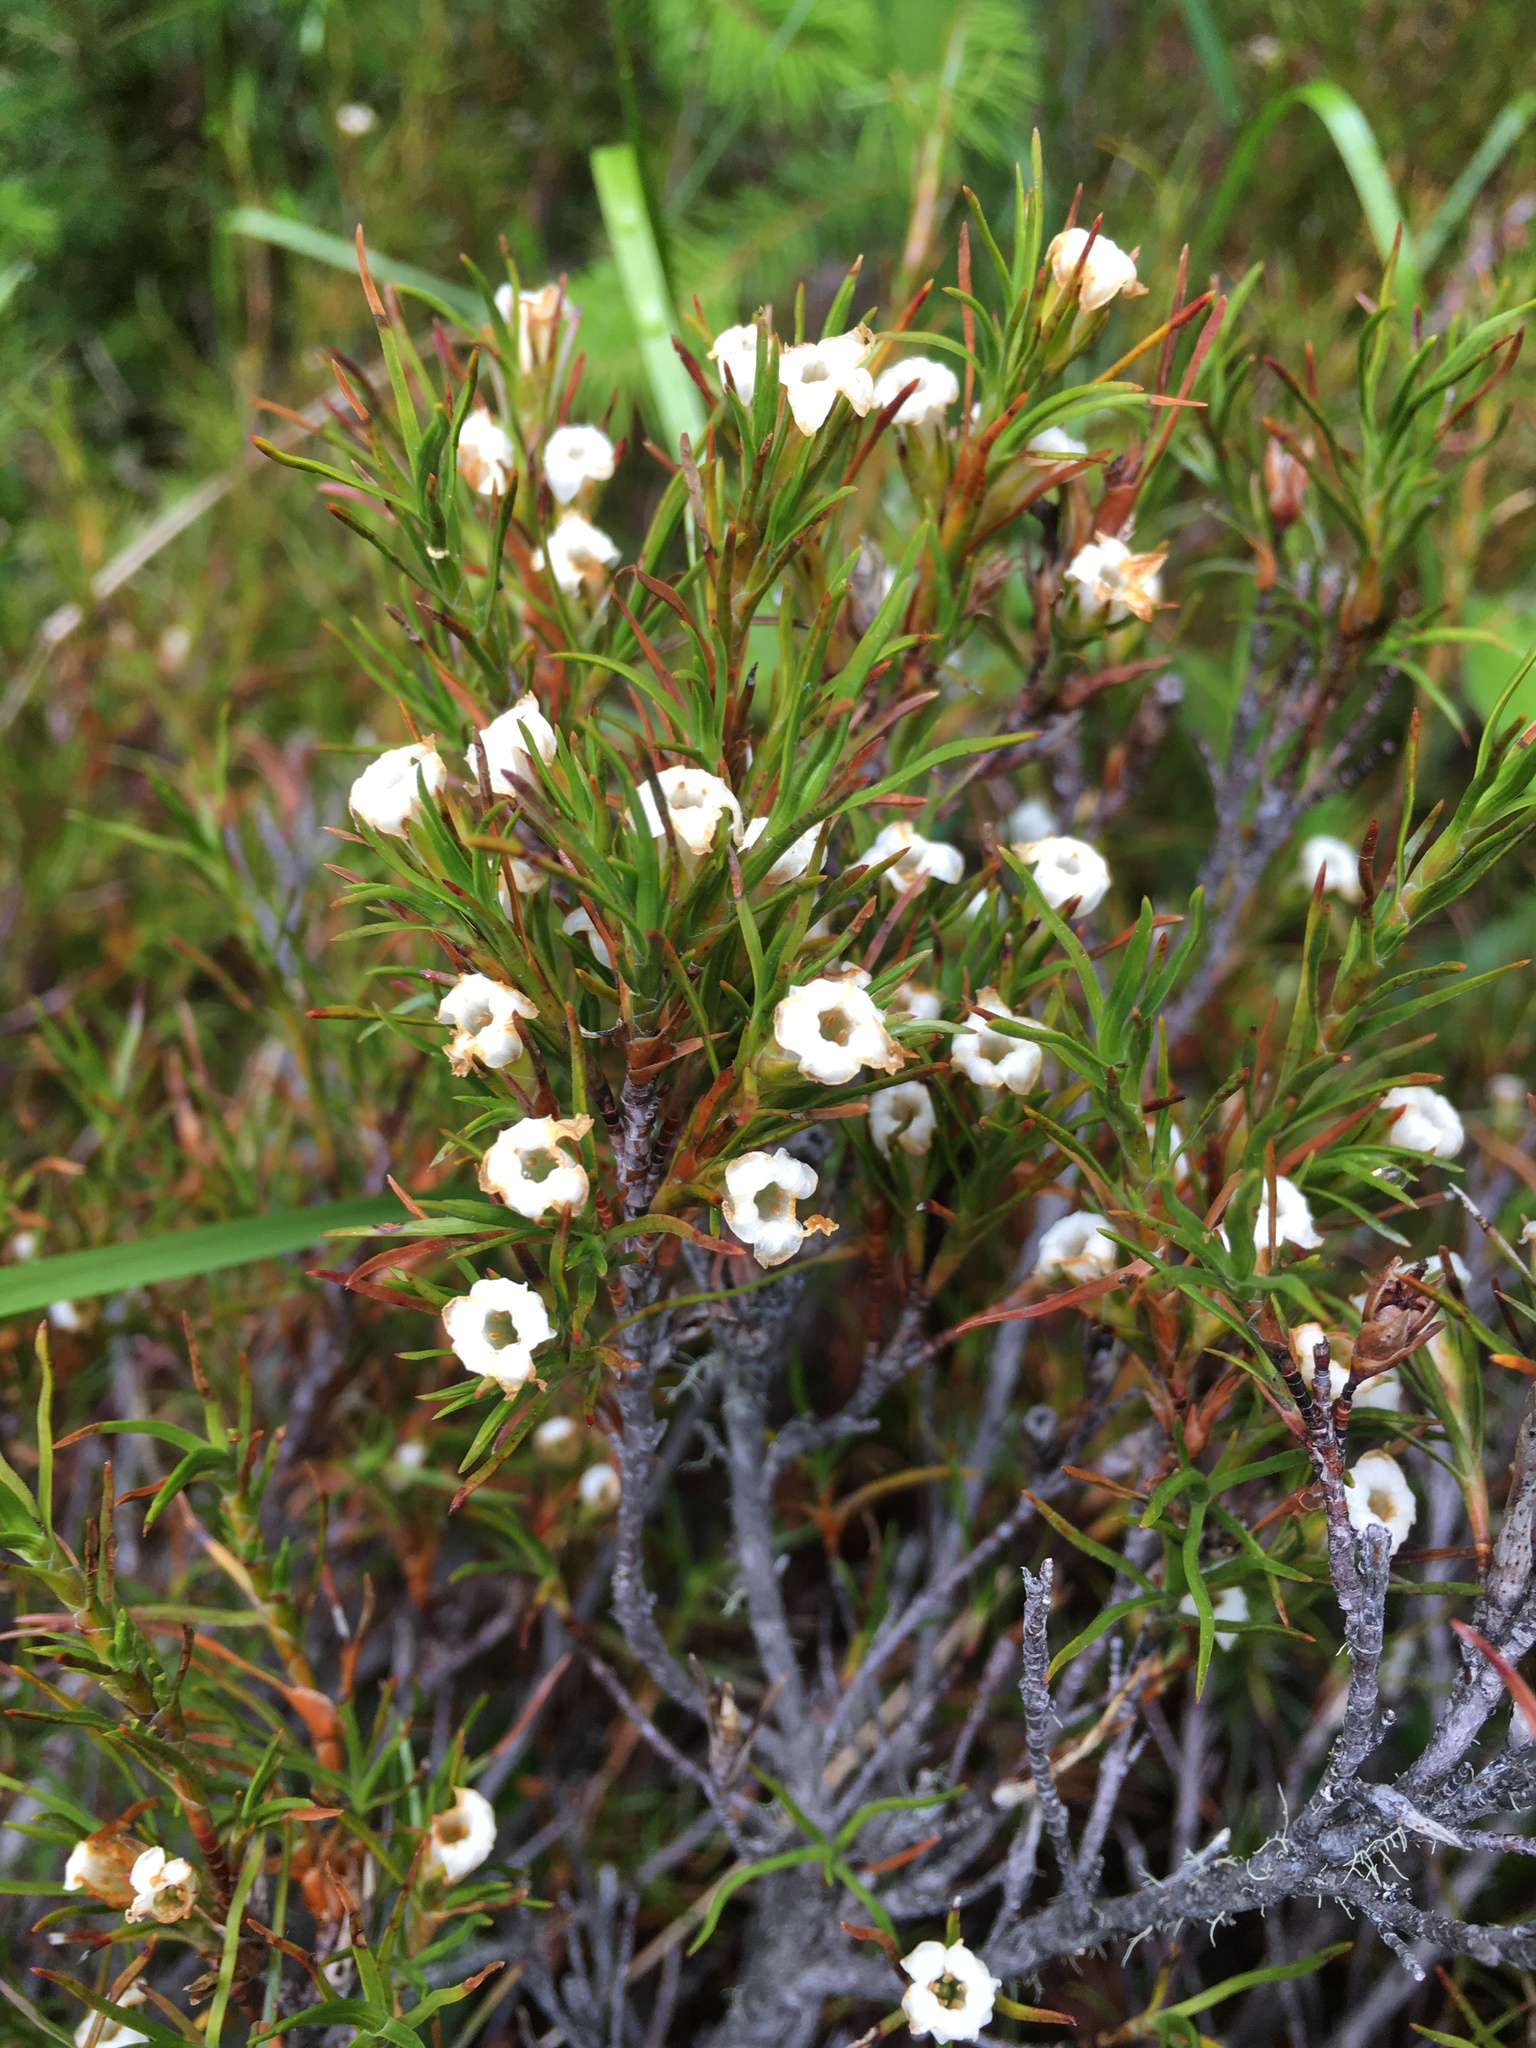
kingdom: Plantae
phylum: Tracheophyta
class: Magnoliopsida
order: Ericales
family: Ericaceae
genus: Dracophyllum
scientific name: Dracophyllum rosmarinifolium
